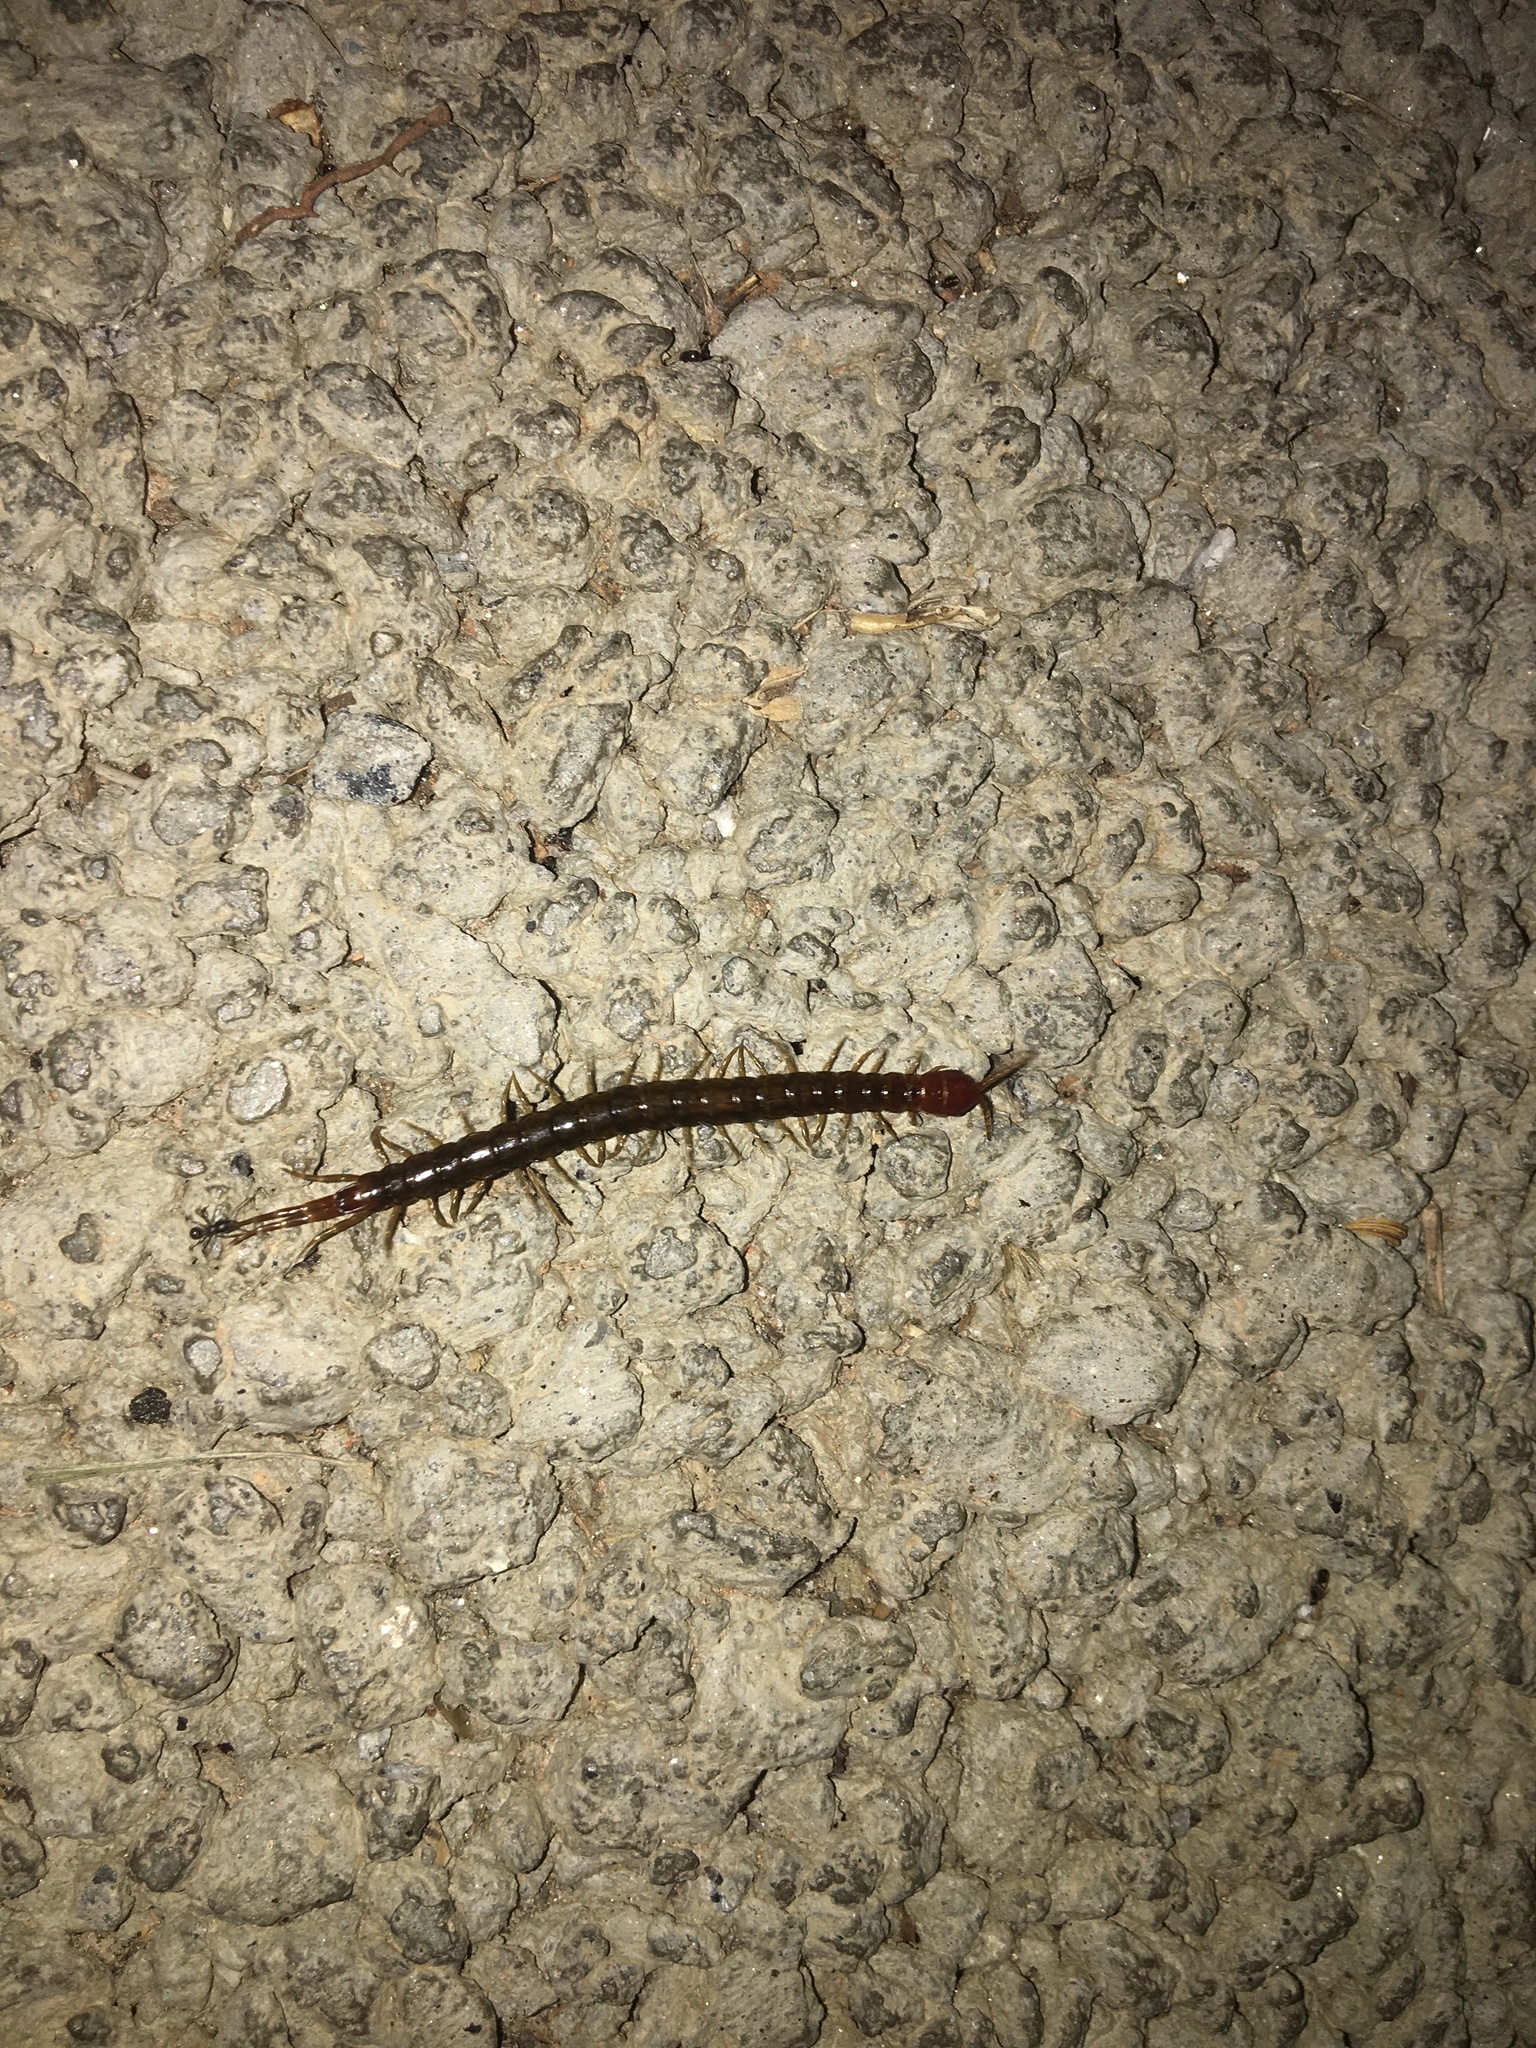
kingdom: Animalia
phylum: Arthropoda
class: Chilopoda
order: Scolopendromorpha
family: Scolopocryptopidae
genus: Scolopocryptops
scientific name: Scolopocryptops nigridius
